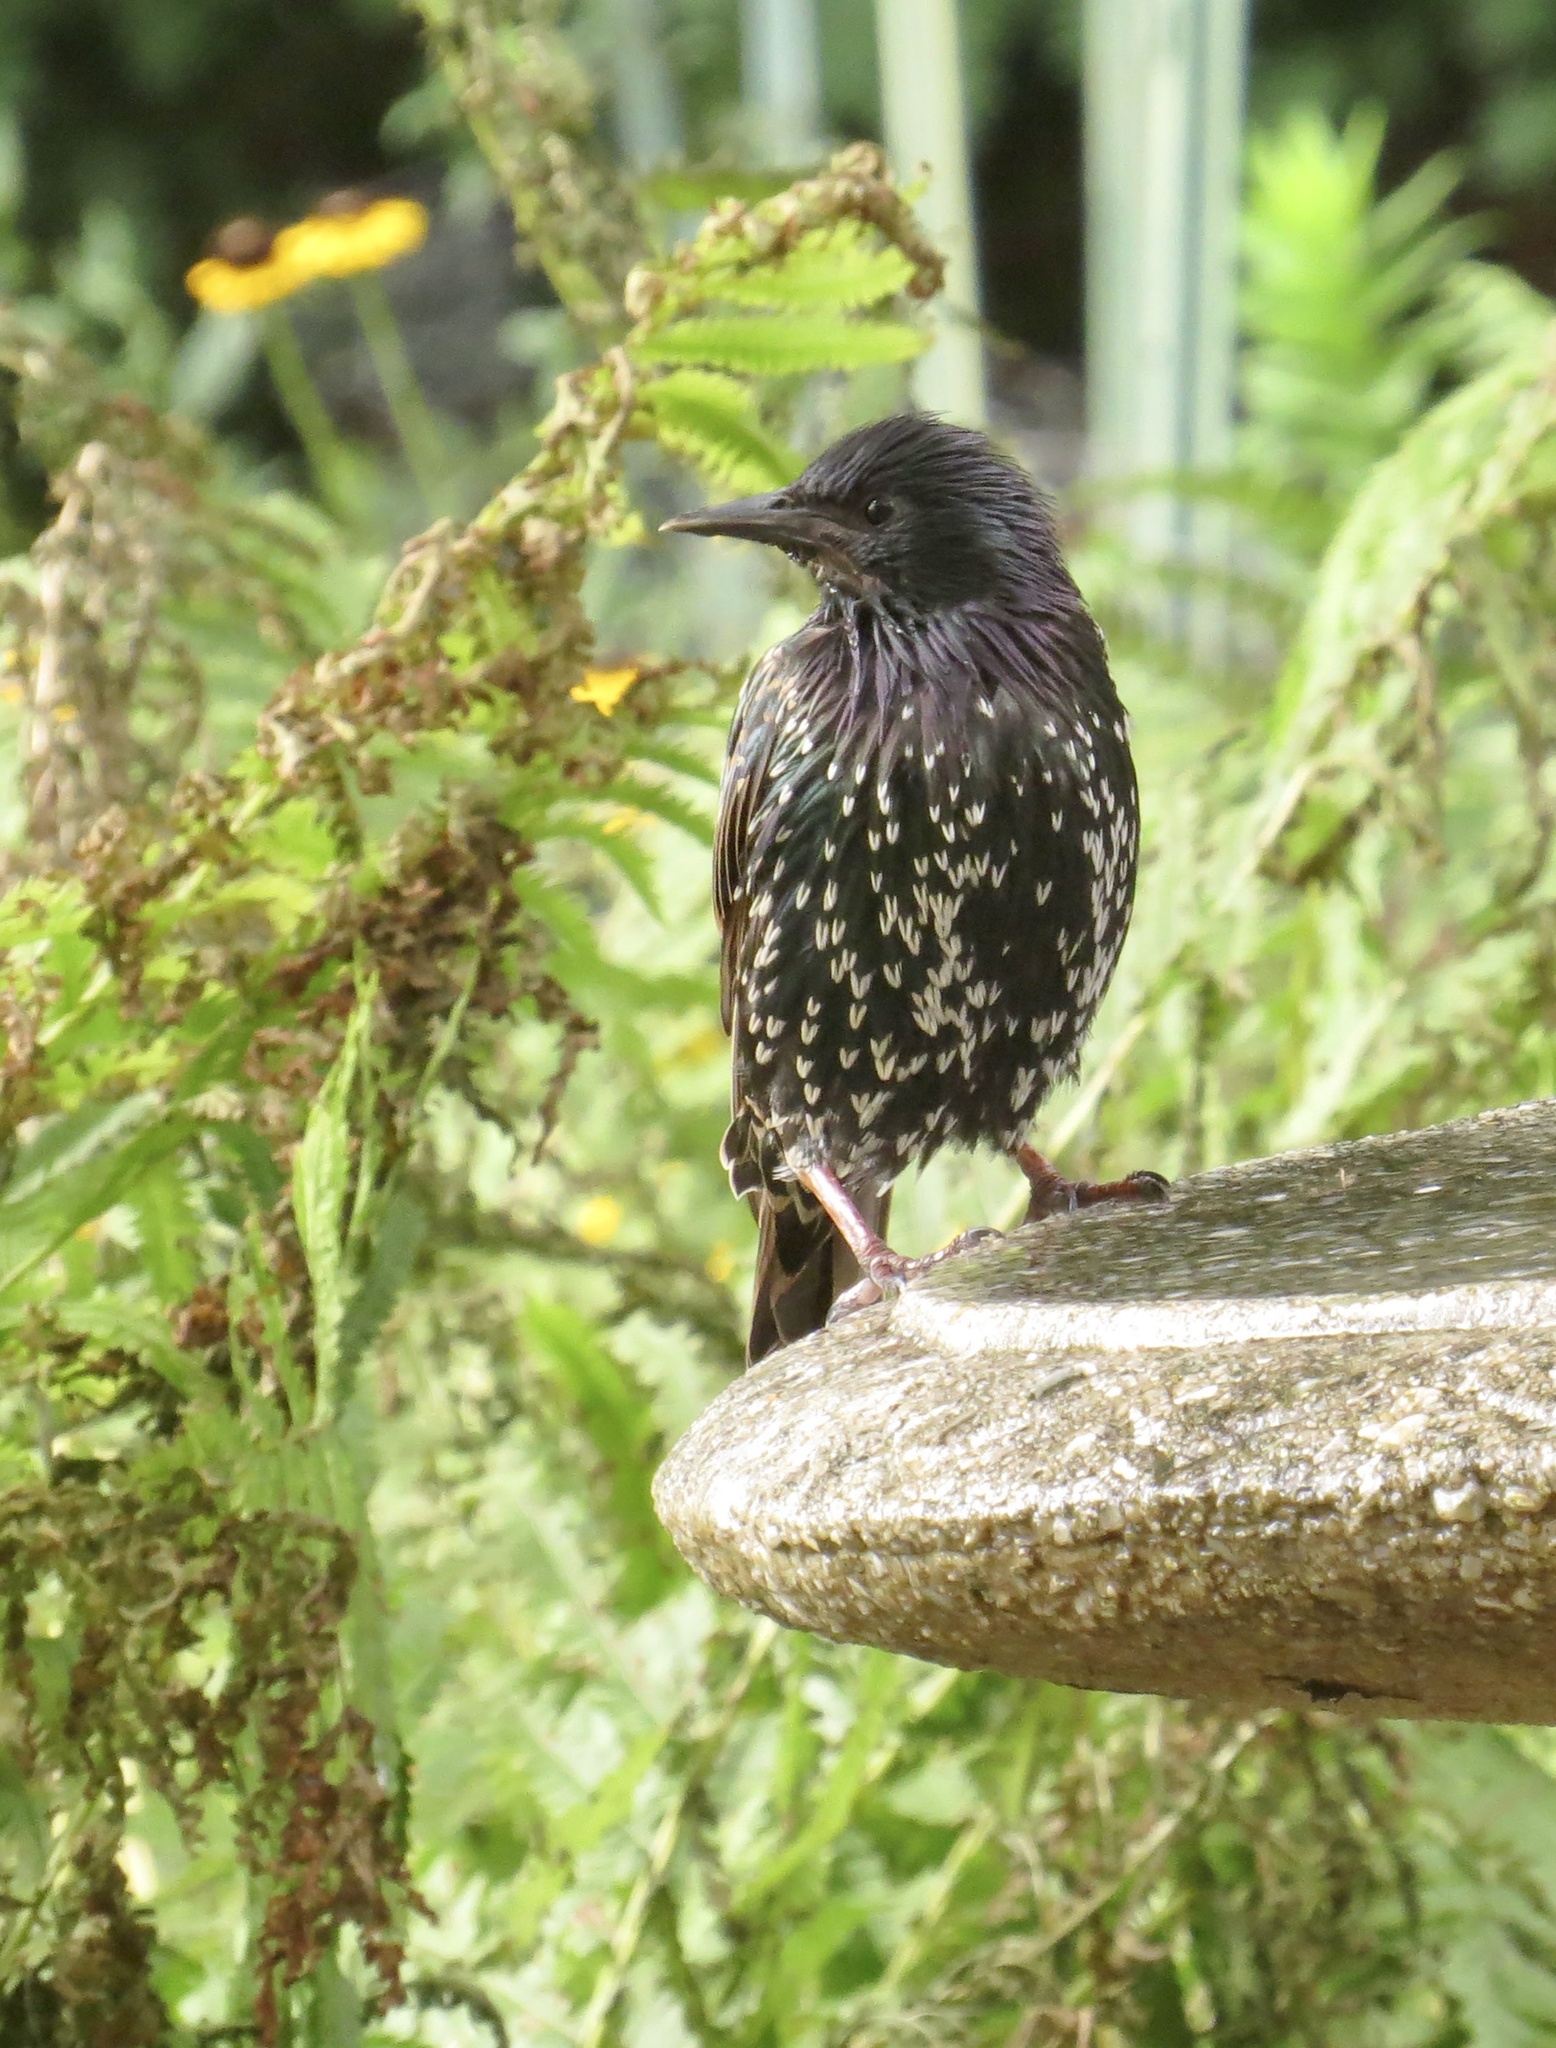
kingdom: Animalia
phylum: Chordata
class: Aves
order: Passeriformes
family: Sturnidae
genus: Sturnus
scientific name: Sturnus vulgaris
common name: Common starling
